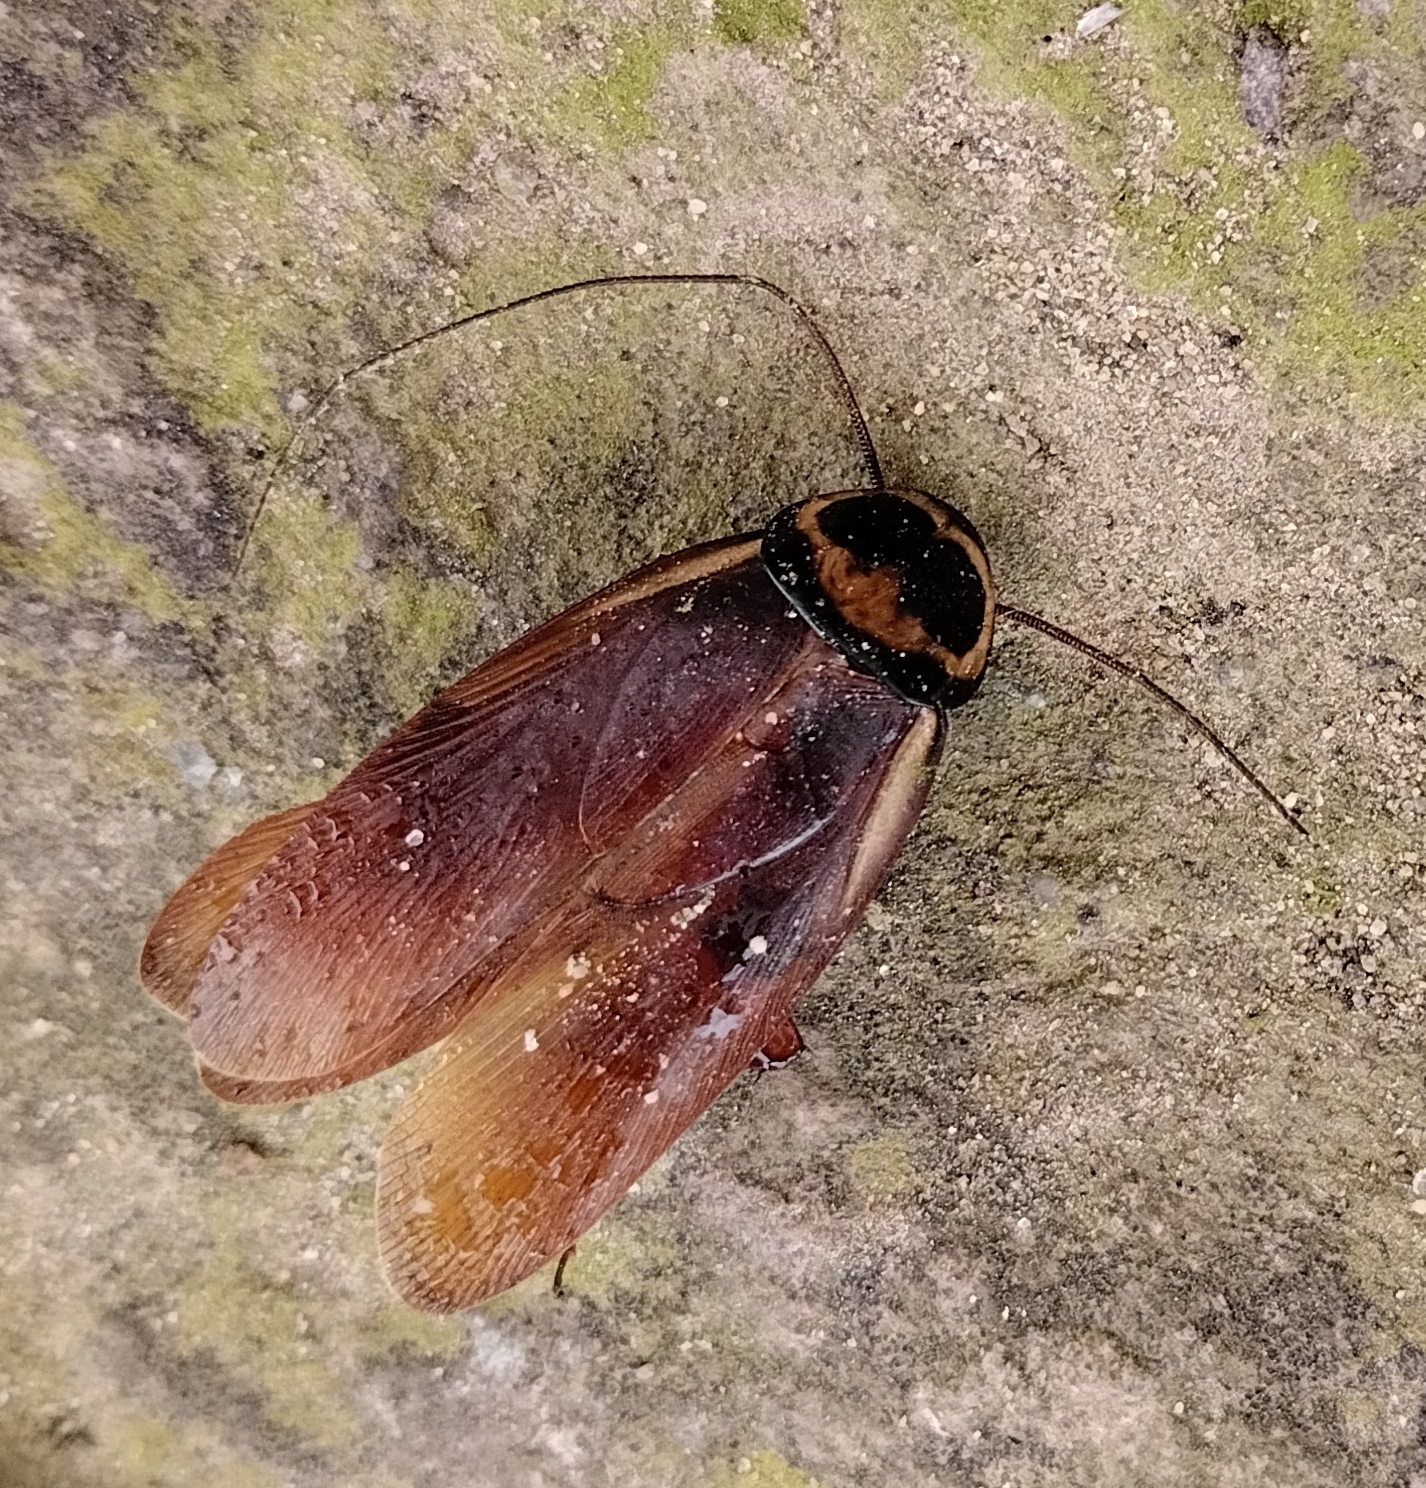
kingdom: Animalia
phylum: Arthropoda
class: Insecta
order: Blattodea
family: Blattidae
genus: Periplaneta
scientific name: Periplaneta australasiae
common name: Australian cockroach
